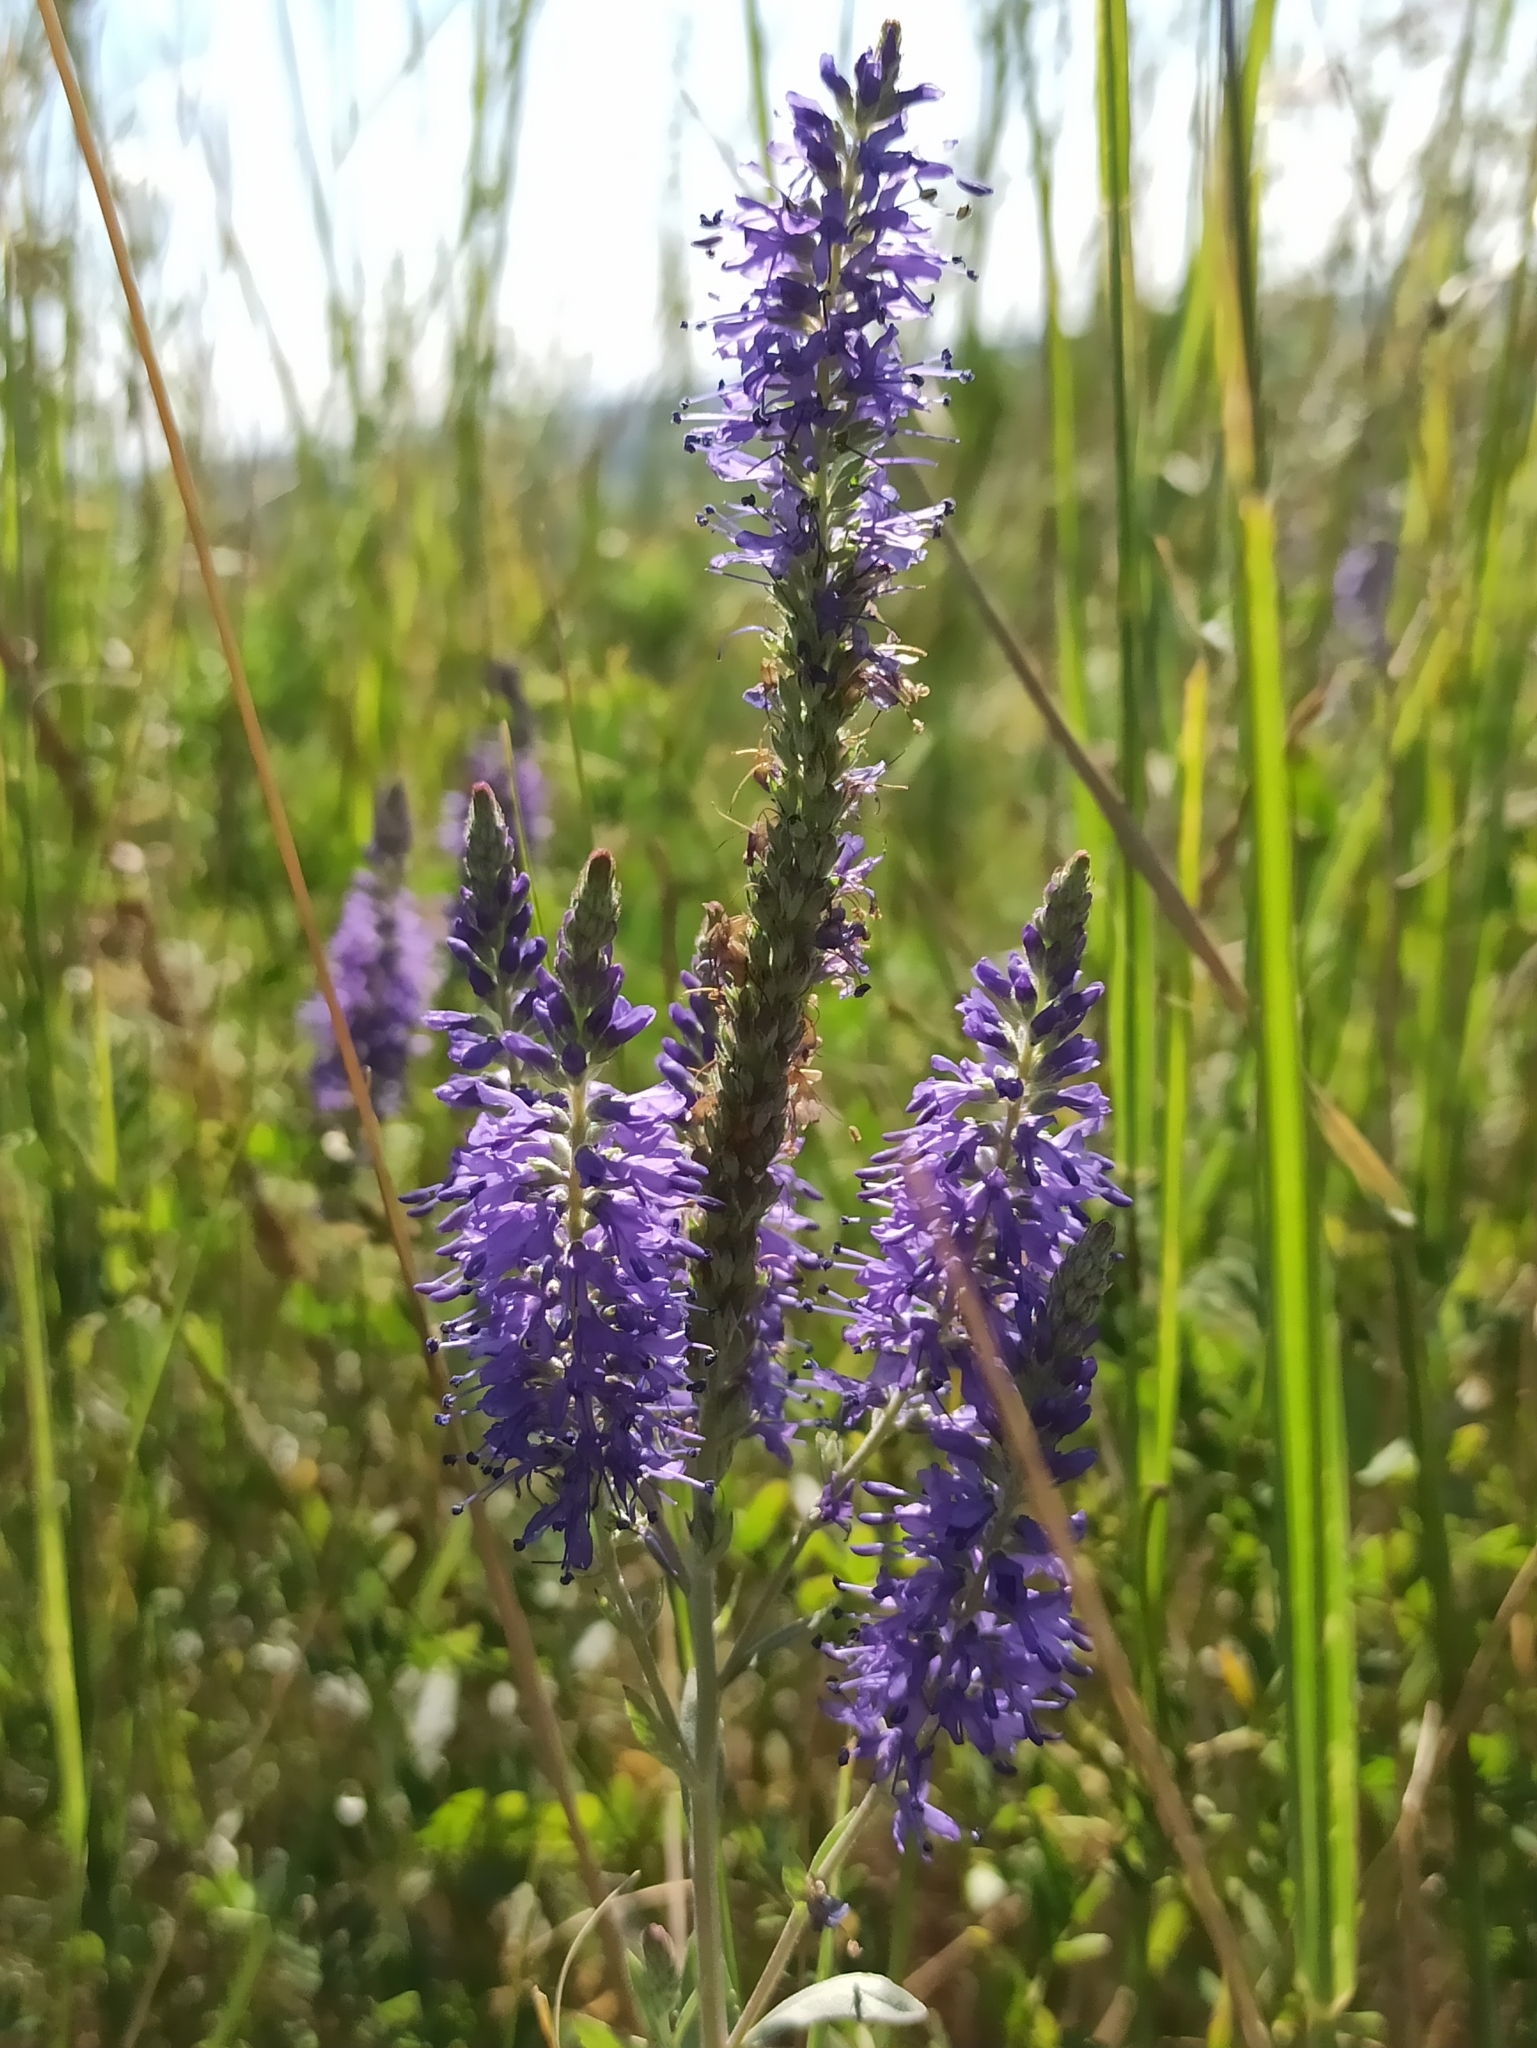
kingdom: Plantae
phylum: Tracheophyta
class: Magnoliopsida
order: Lamiales
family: Plantaginaceae
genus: Veronica
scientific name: Veronica spicata
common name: Spiked speedwell
